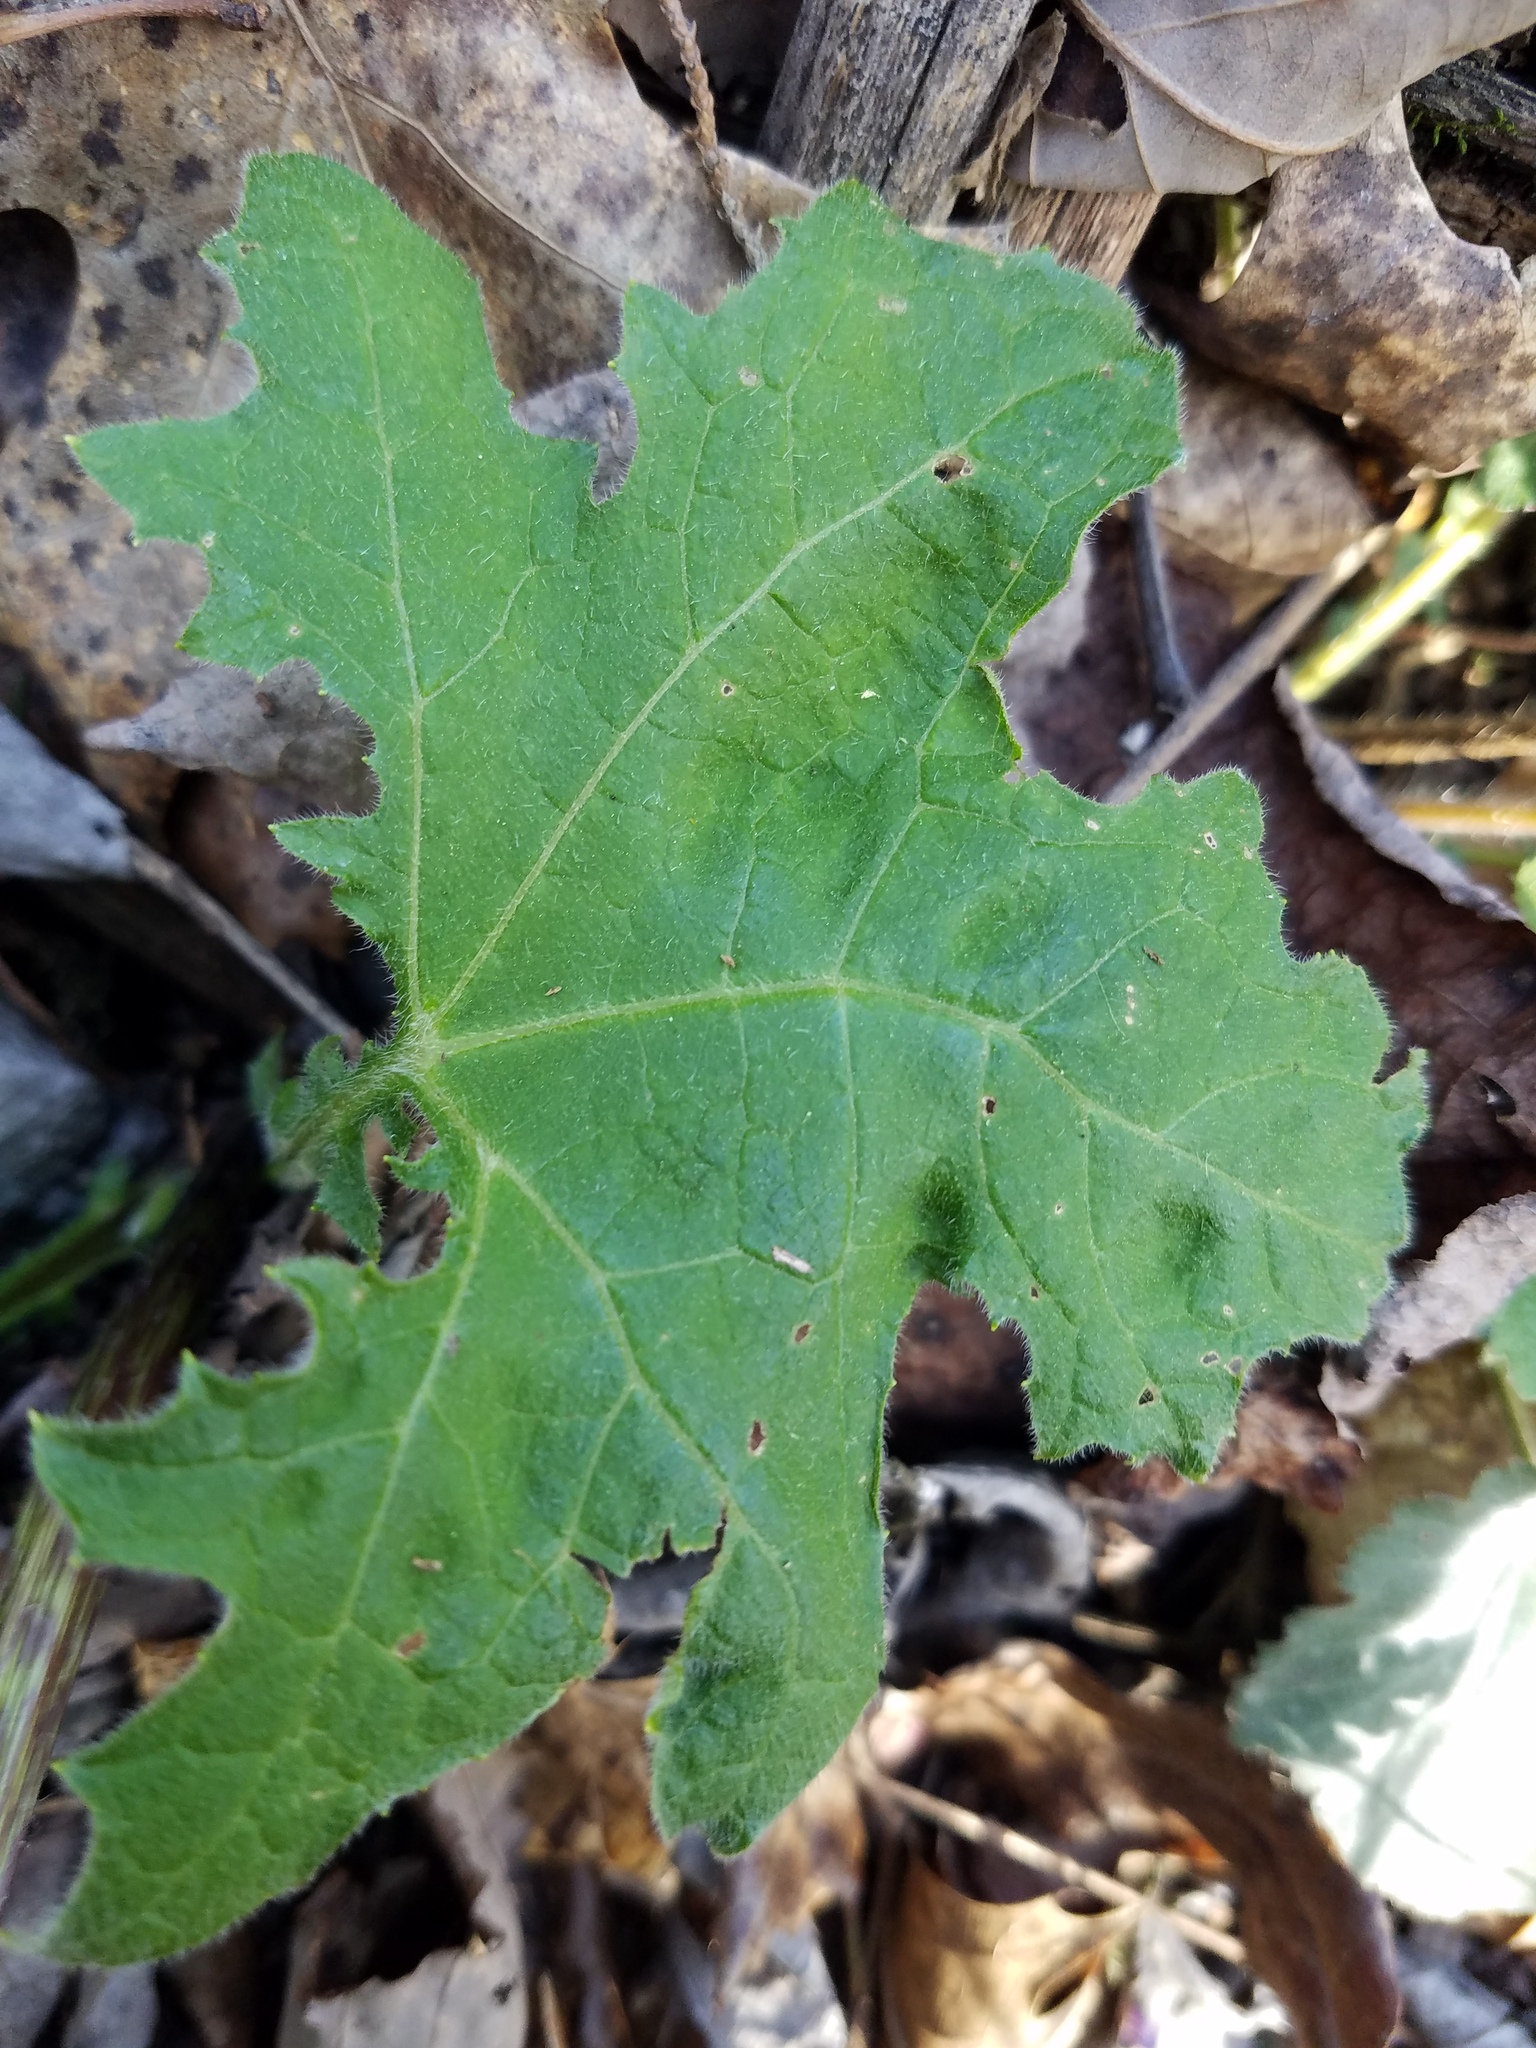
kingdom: Plantae
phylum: Tracheophyta
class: Magnoliopsida
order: Asterales
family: Asteraceae
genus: Smallanthus
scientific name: Smallanthus uvedalia
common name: Bear's-foot
